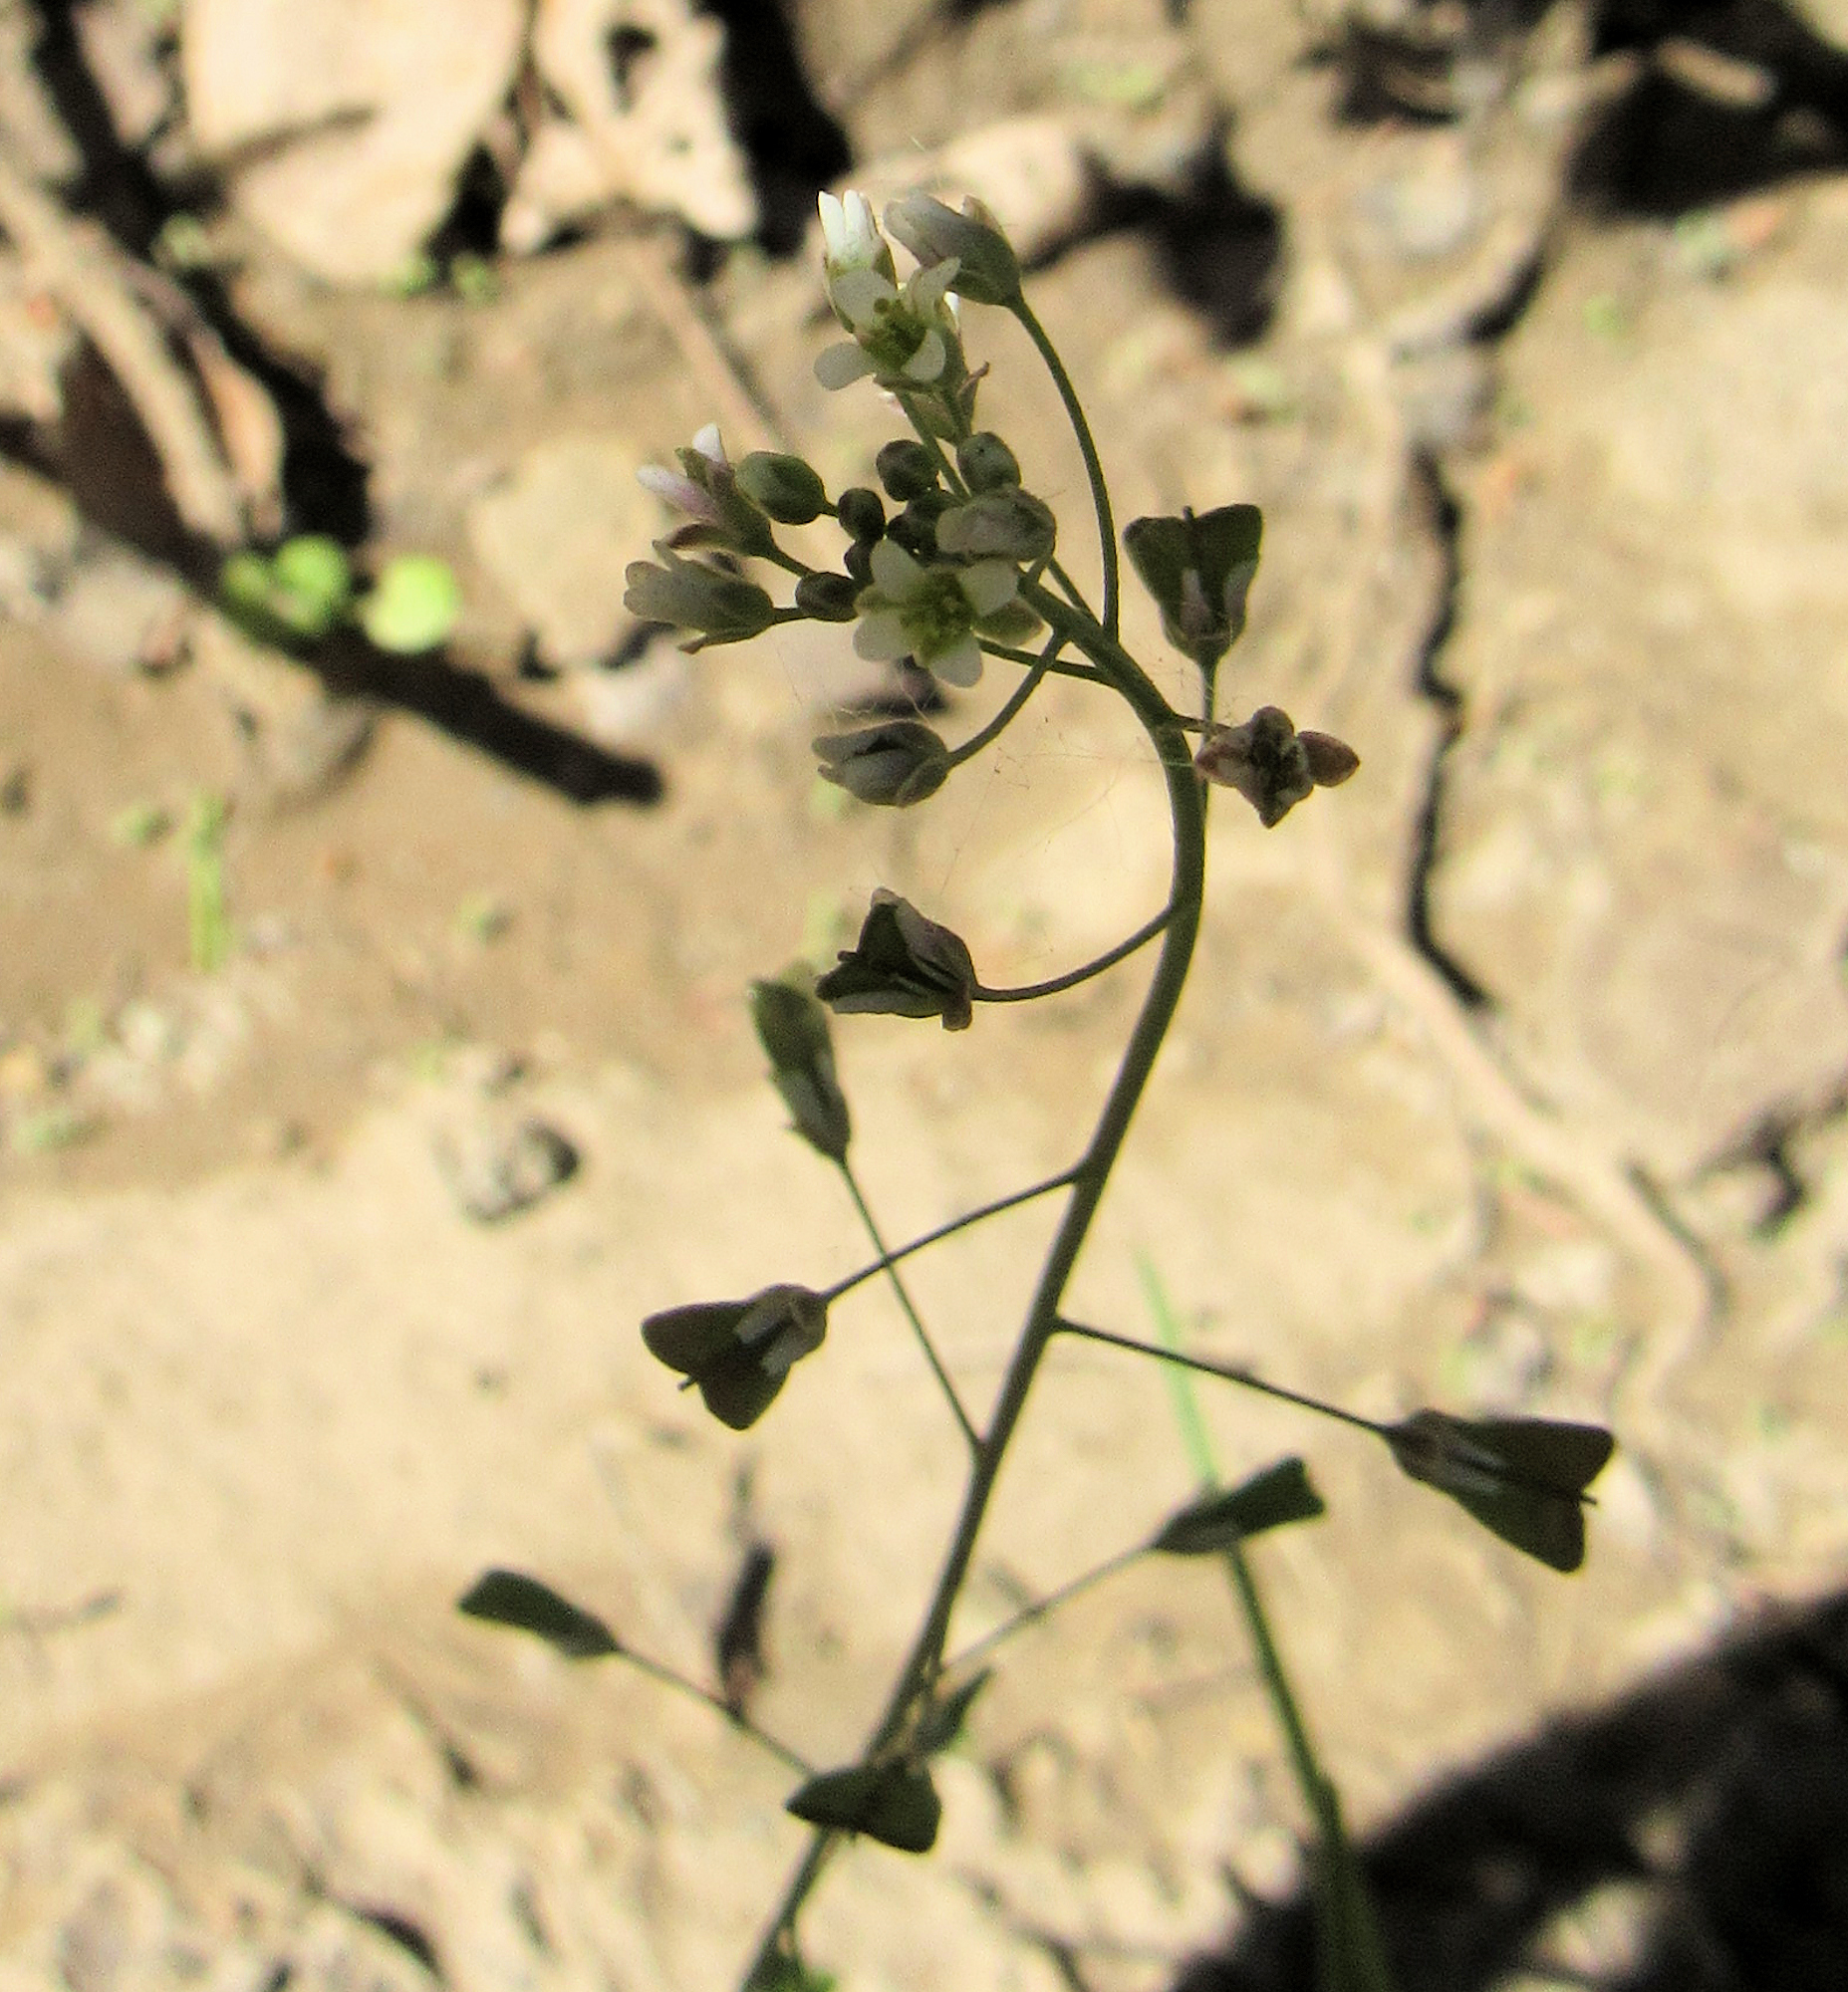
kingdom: Plantae
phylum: Tracheophyta
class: Magnoliopsida
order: Brassicales
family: Brassicaceae
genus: Capsella
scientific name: Capsella bursa-pastoris
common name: Shepherd's purse
